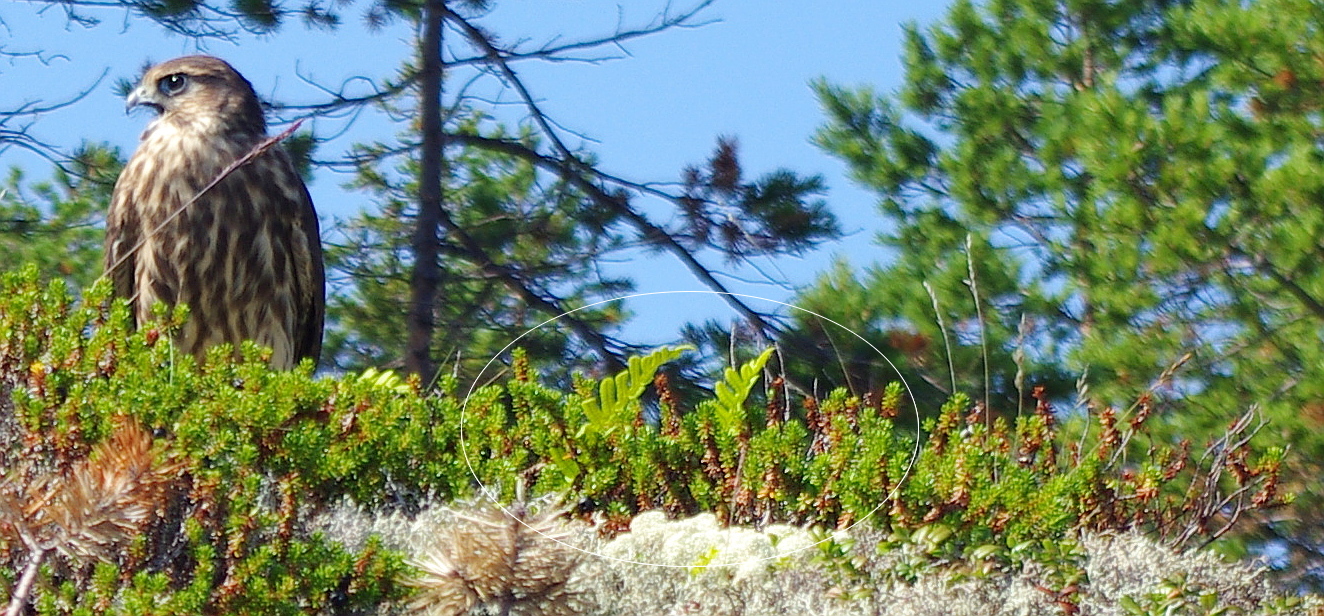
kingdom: Plantae
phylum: Tracheophyta
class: Polypodiopsida
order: Polypodiales
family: Polypodiaceae
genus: Polypodium
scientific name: Polypodium vulgare
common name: Common polypody
